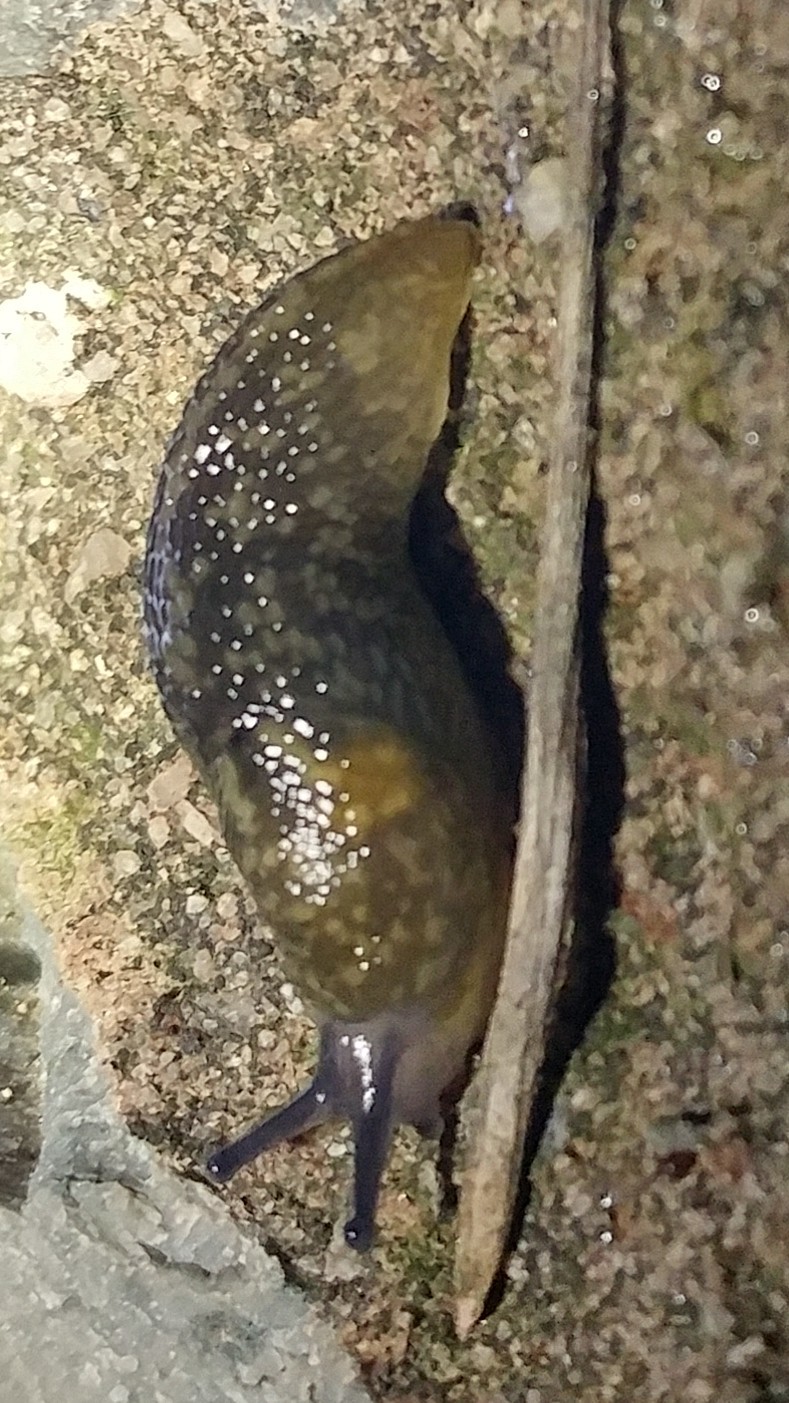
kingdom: Animalia
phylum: Mollusca
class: Gastropoda
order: Stylommatophora
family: Limacidae
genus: Limacus
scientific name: Limacus flavus
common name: Yellow gardenslug
